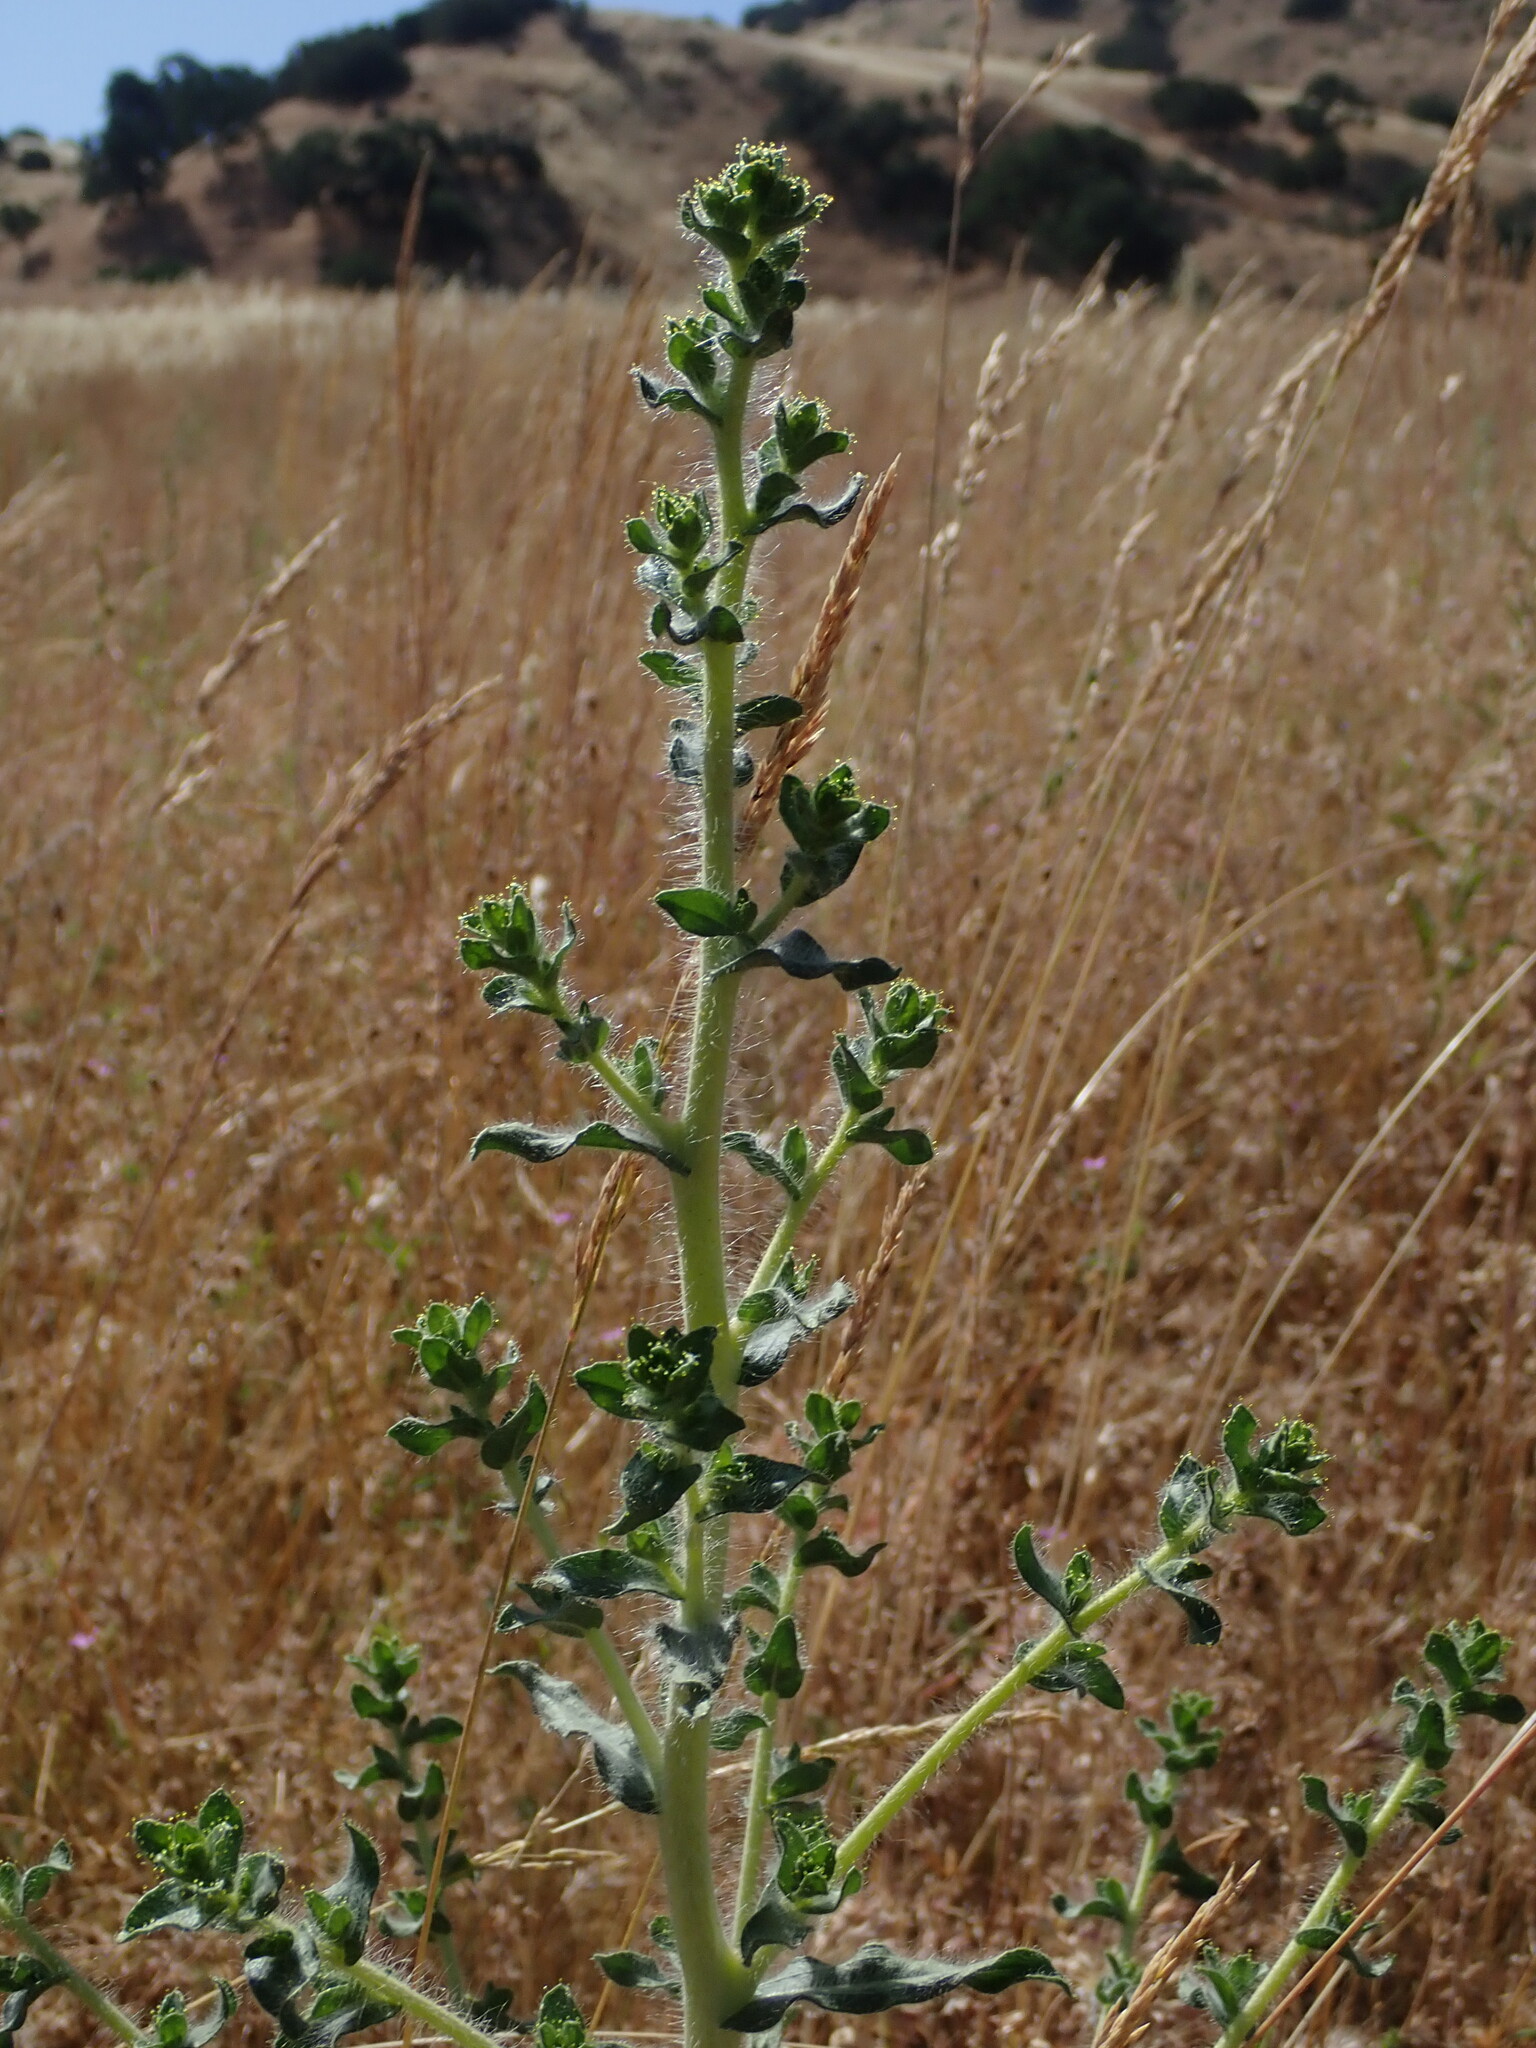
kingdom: Plantae
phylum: Tracheophyta
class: Magnoliopsida
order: Asterales
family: Asteraceae
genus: Blepharizonia
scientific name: Blepharizonia laxa
